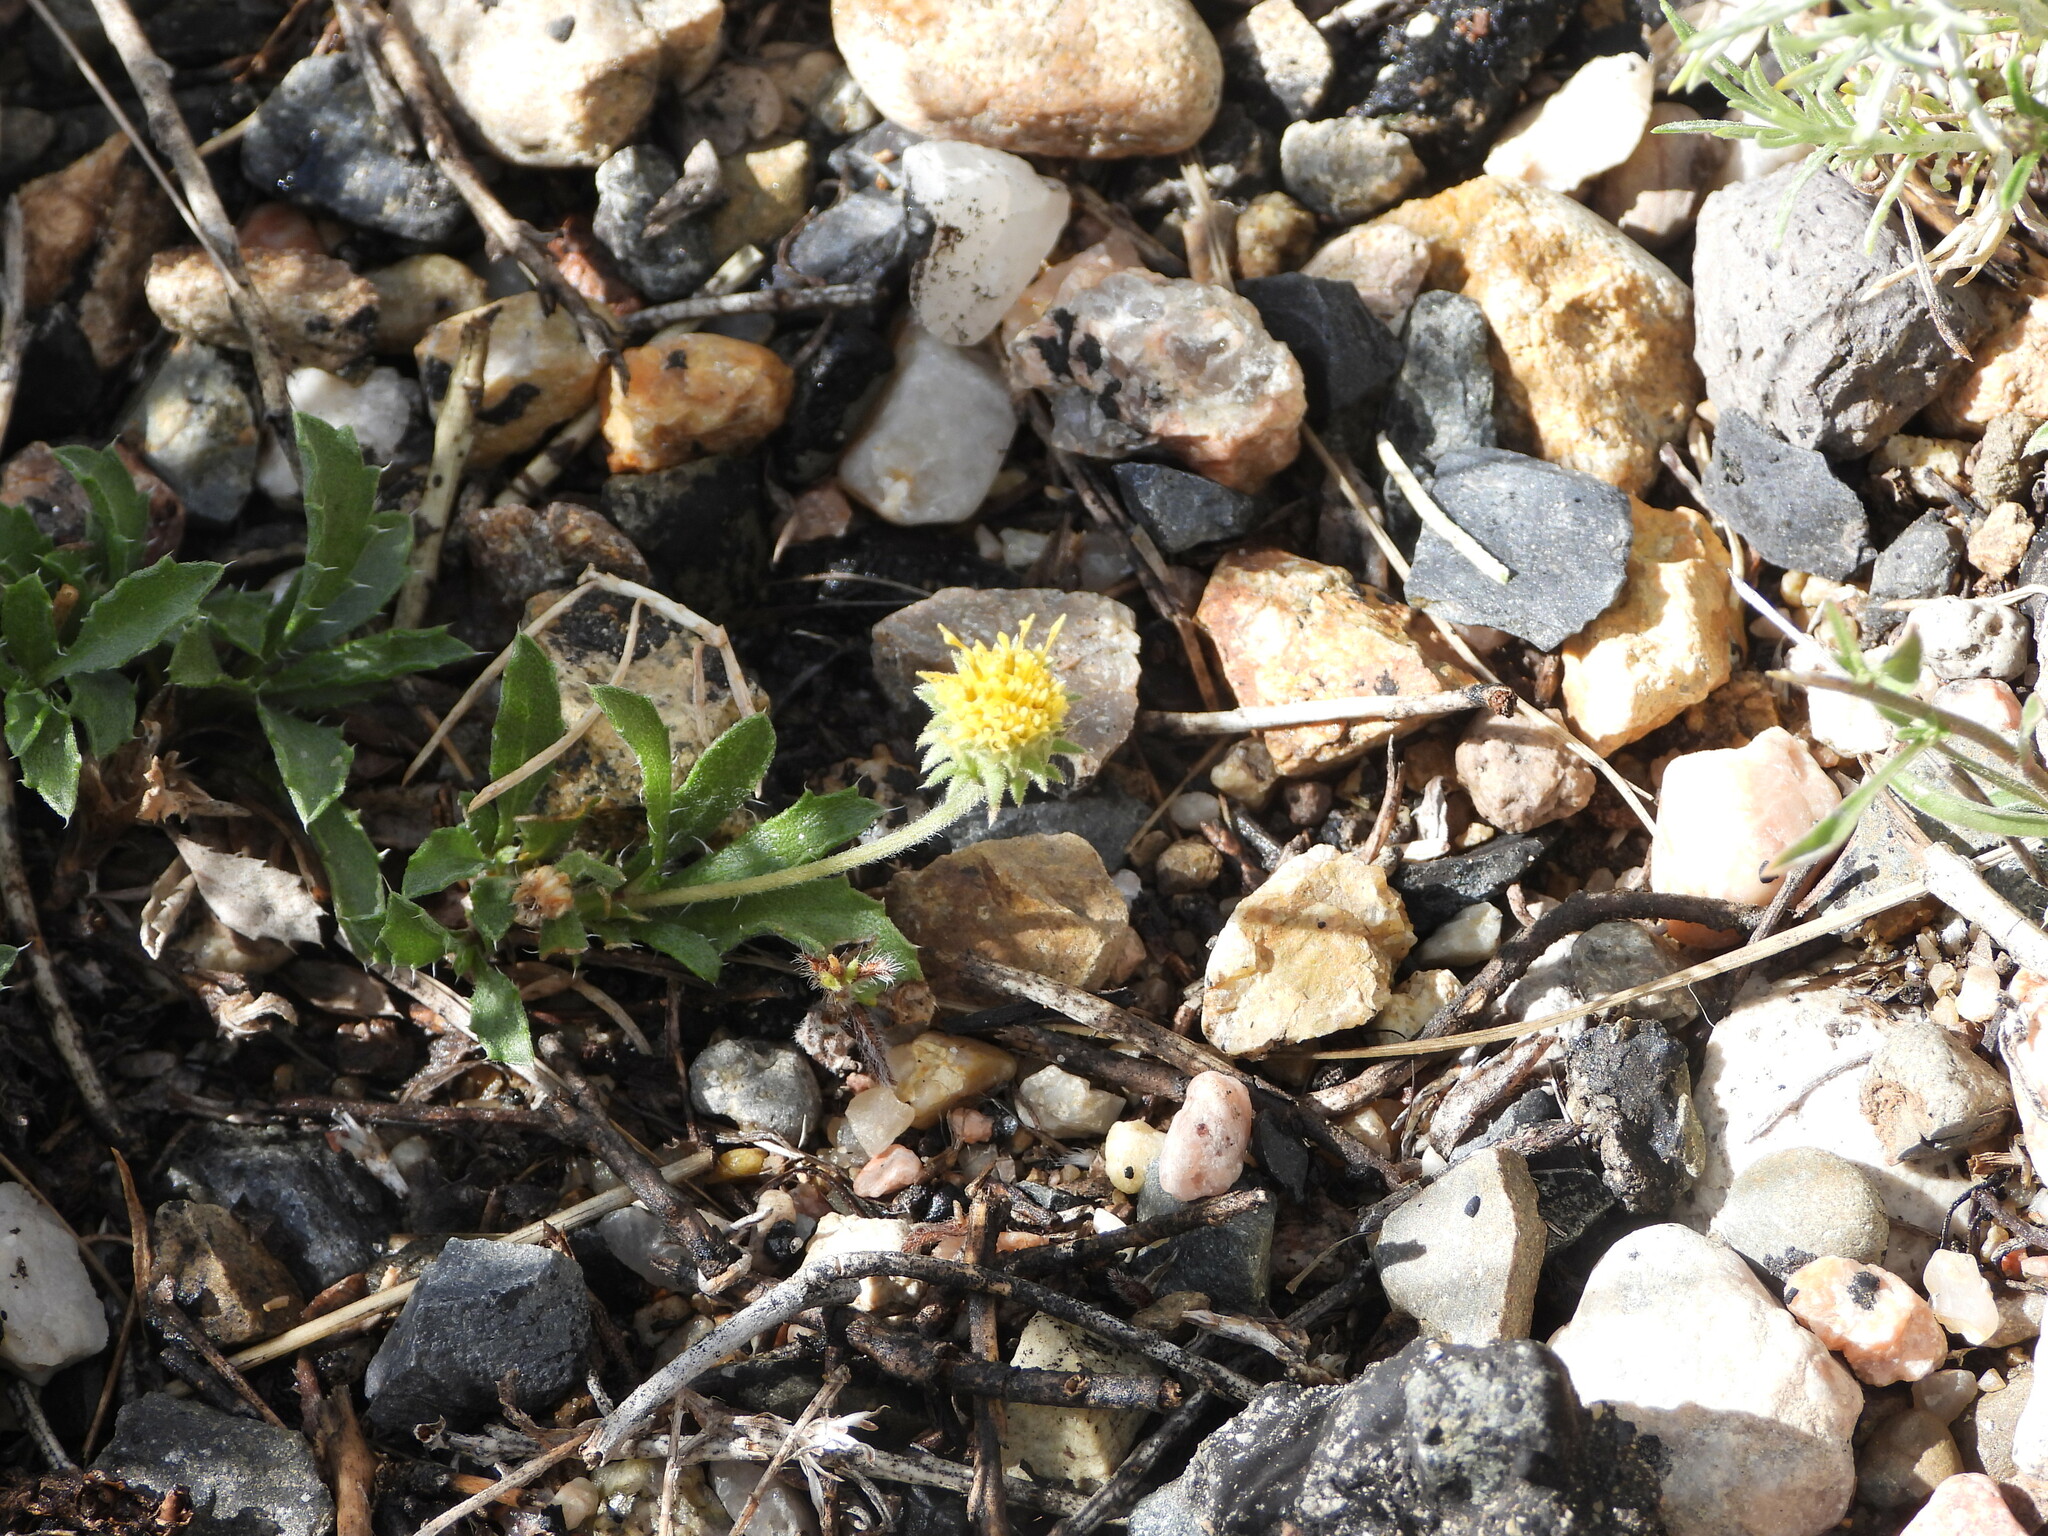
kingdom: Plantae
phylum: Tracheophyta
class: Magnoliopsida
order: Asterales
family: Asteraceae
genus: Xanthisma
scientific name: Xanthisma coloradoense
